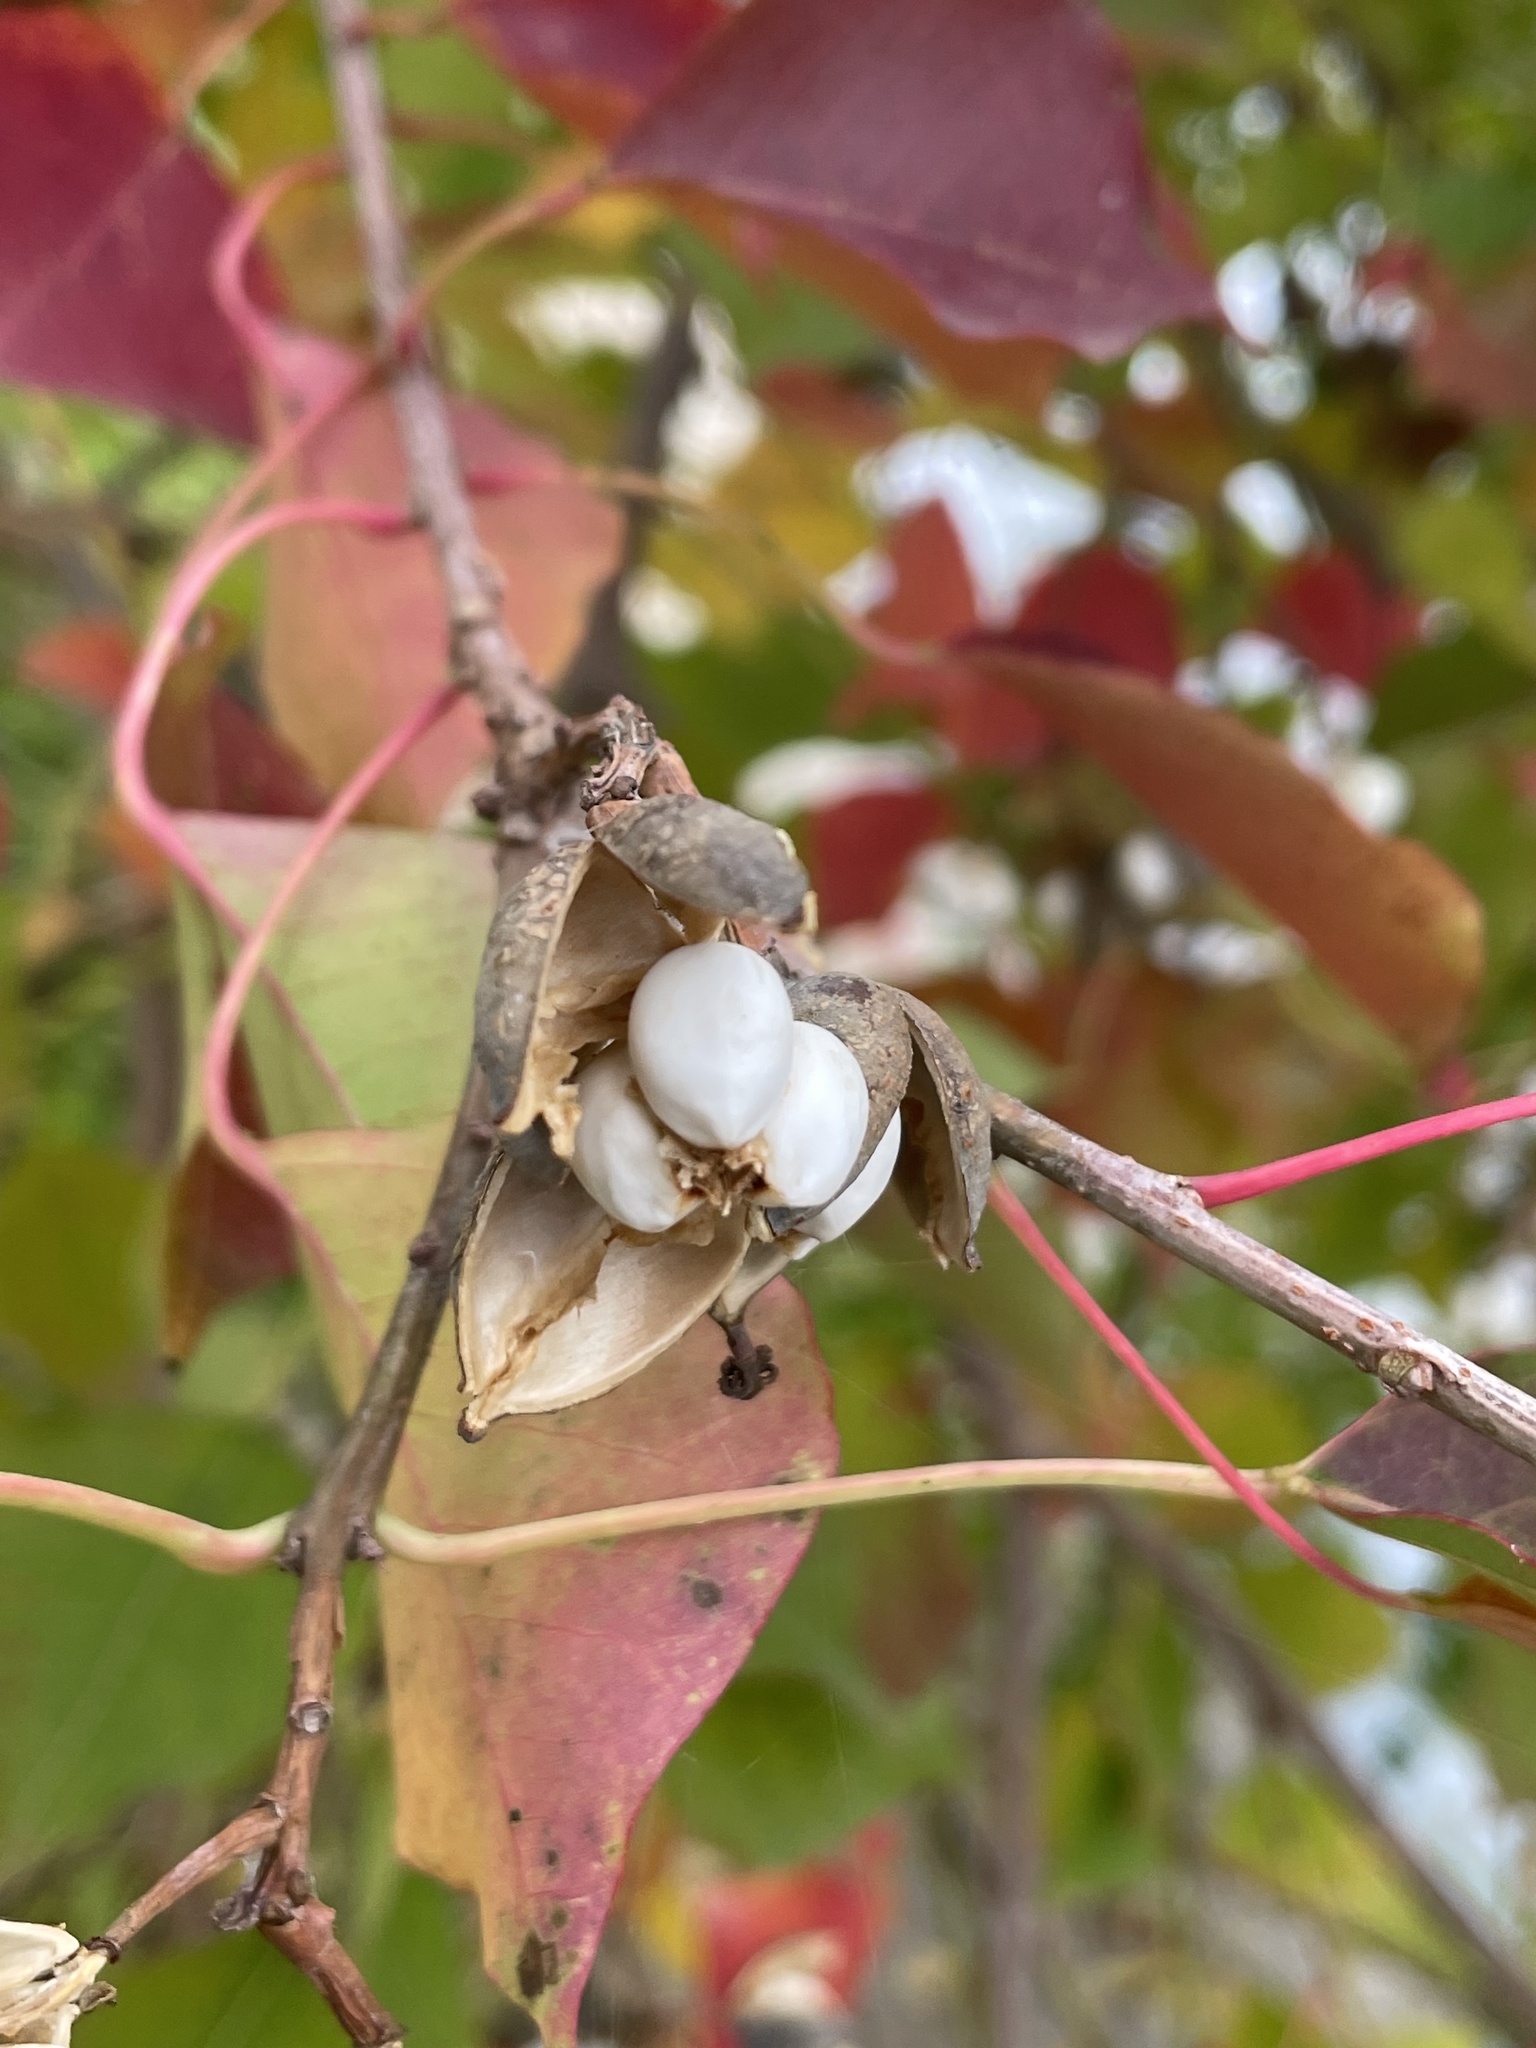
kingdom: Plantae
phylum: Tracheophyta
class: Magnoliopsida
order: Malpighiales
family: Euphorbiaceae
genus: Triadica
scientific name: Triadica sebifera
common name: Chinese tallow
